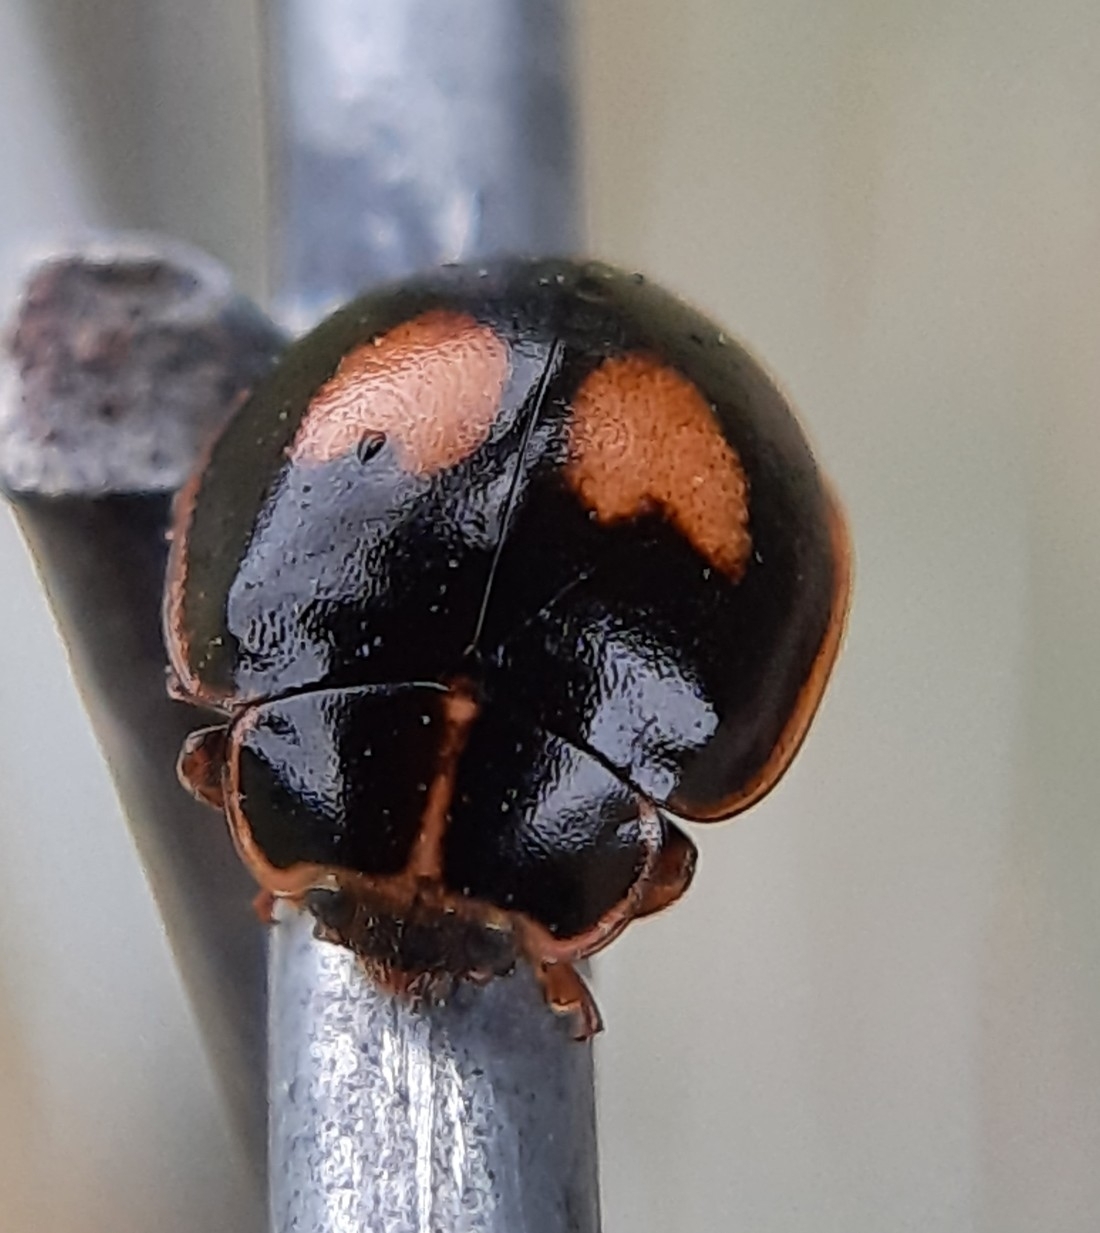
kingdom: Animalia
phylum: Arthropoda
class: Insecta
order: Coleoptera
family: Coccinellidae
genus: Calvia
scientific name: Calvia quatuordecimguttata
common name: Cream-spot ladybird
